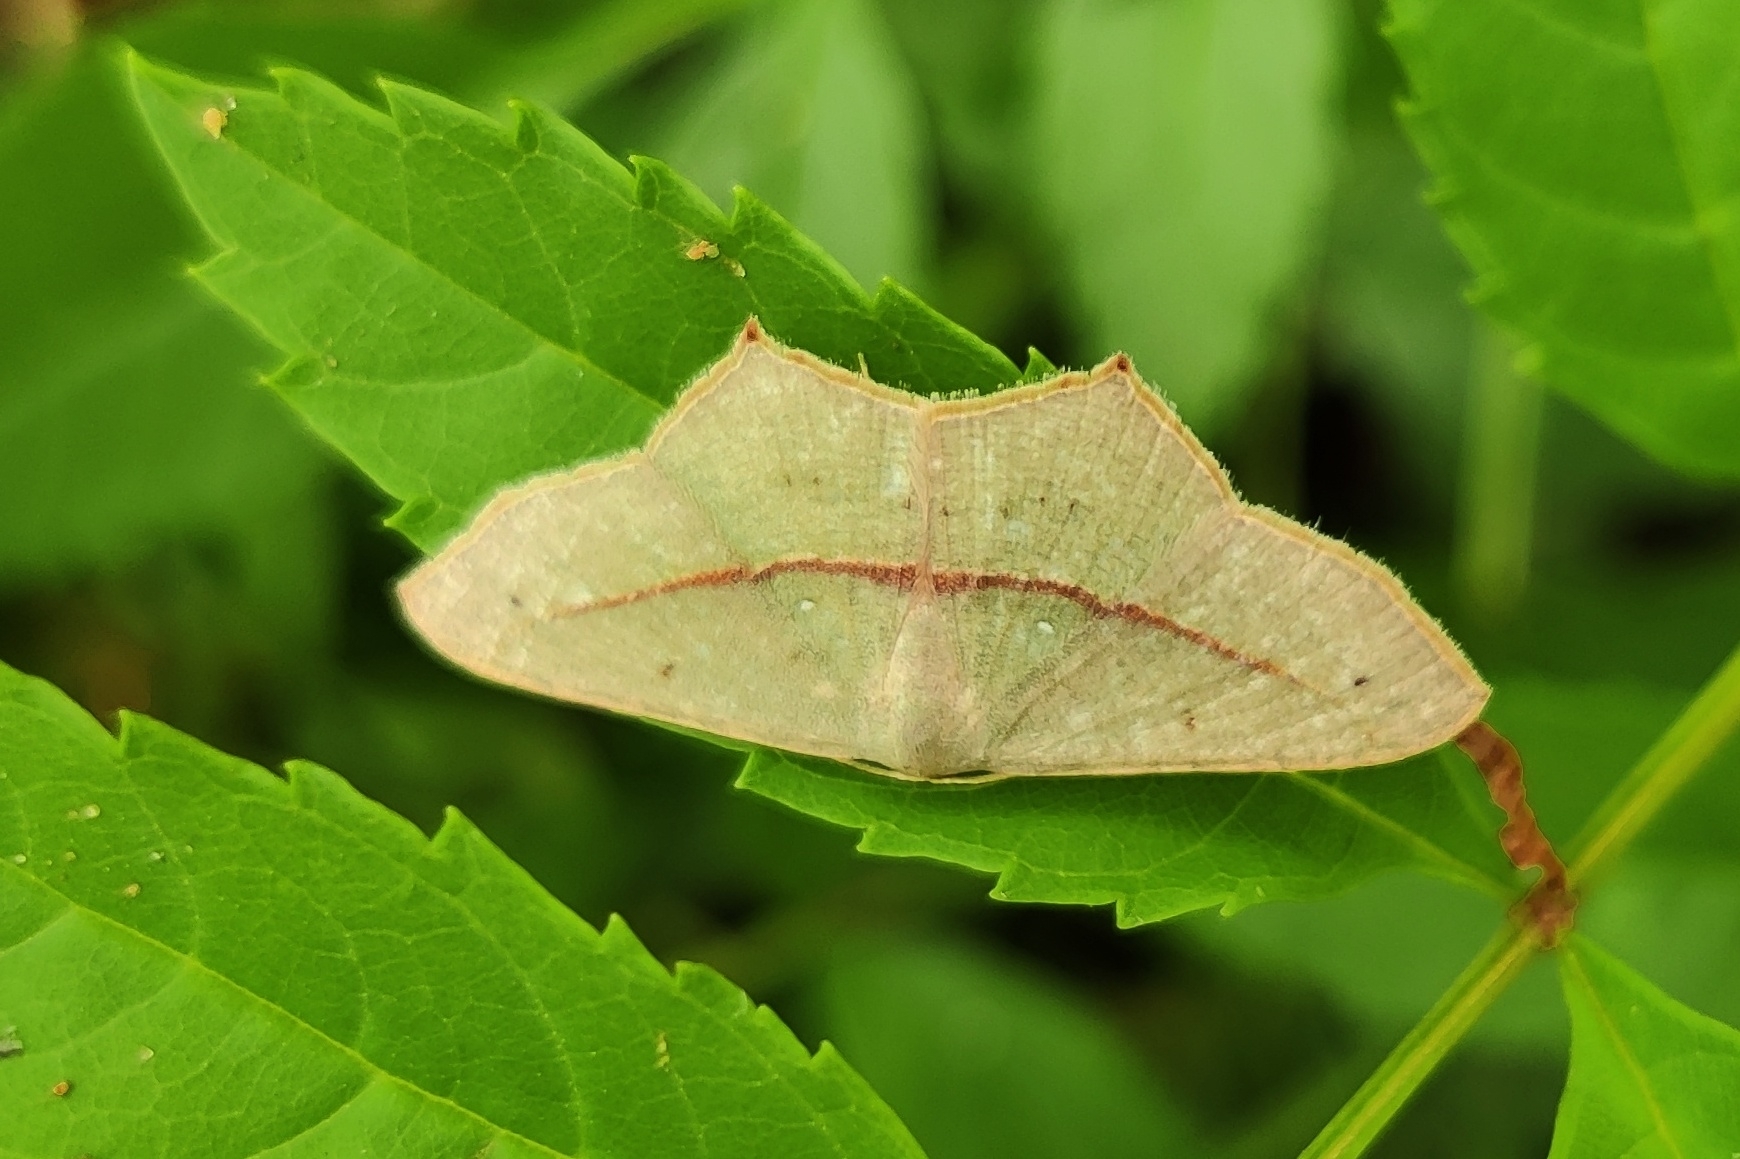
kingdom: Animalia
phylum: Arthropoda
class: Insecta
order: Lepidoptera
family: Geometridae
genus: Traminda
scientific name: Traminda mundissima
